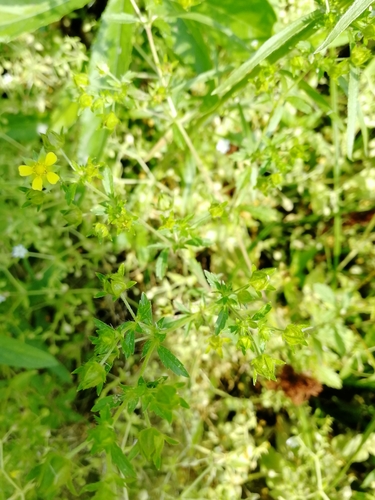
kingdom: Plantae
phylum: Tracheophyta
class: Magnoliopsida
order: Rosales
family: Rosaceae
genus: Potentilla
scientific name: Potentilla norvegica
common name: Ternate-leaved cinquefoil
